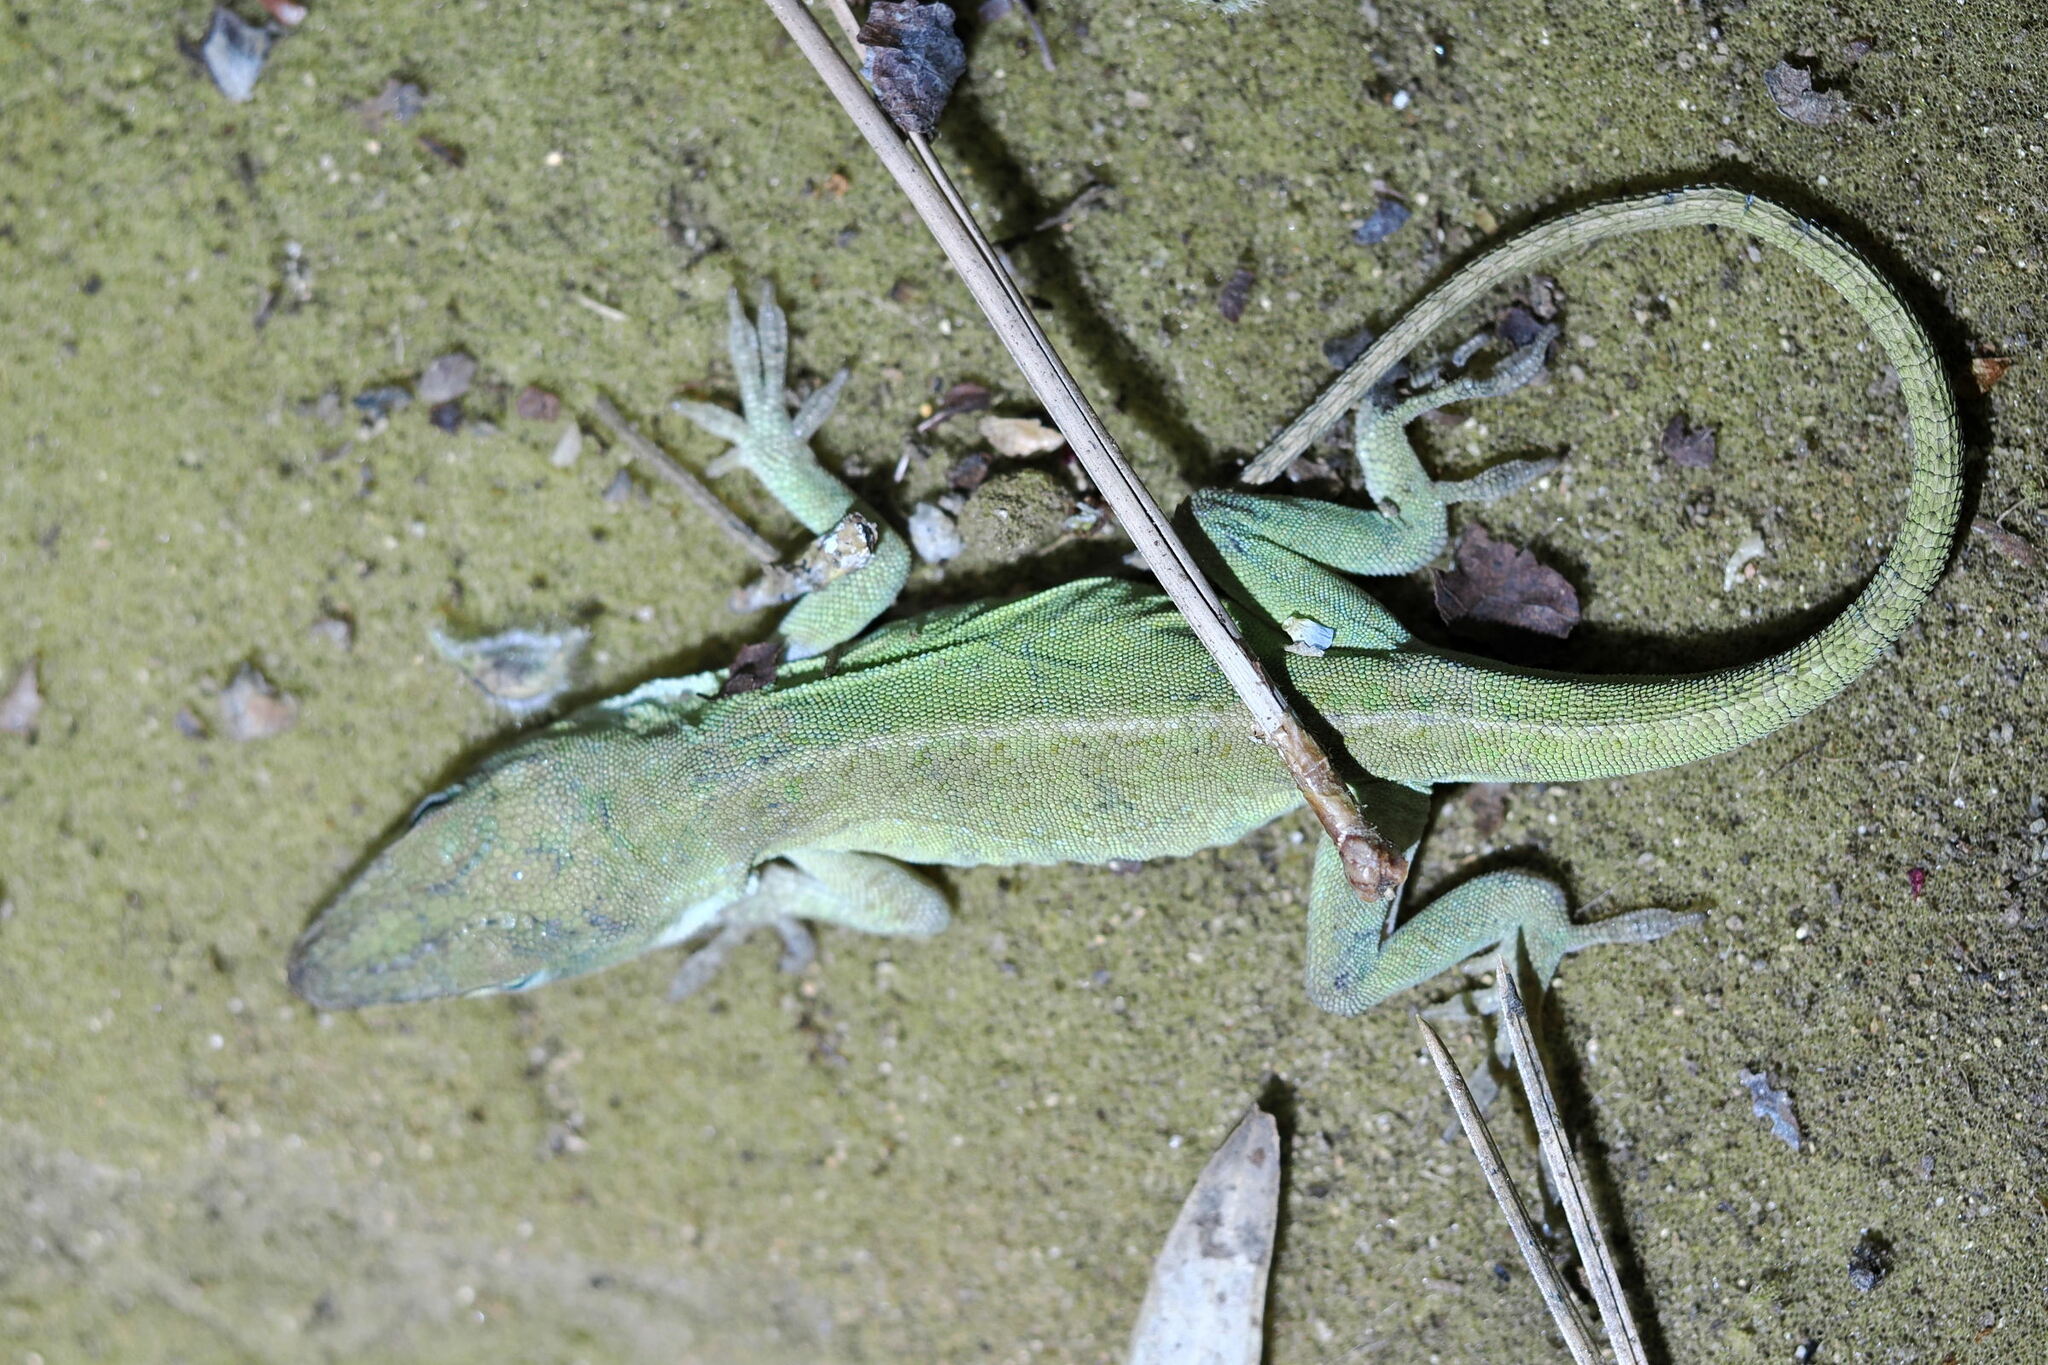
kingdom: Animalia
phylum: Chordata
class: Squamata
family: Dactyloidae
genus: Anolis
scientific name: Anolis carolinensis
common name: Green anole
